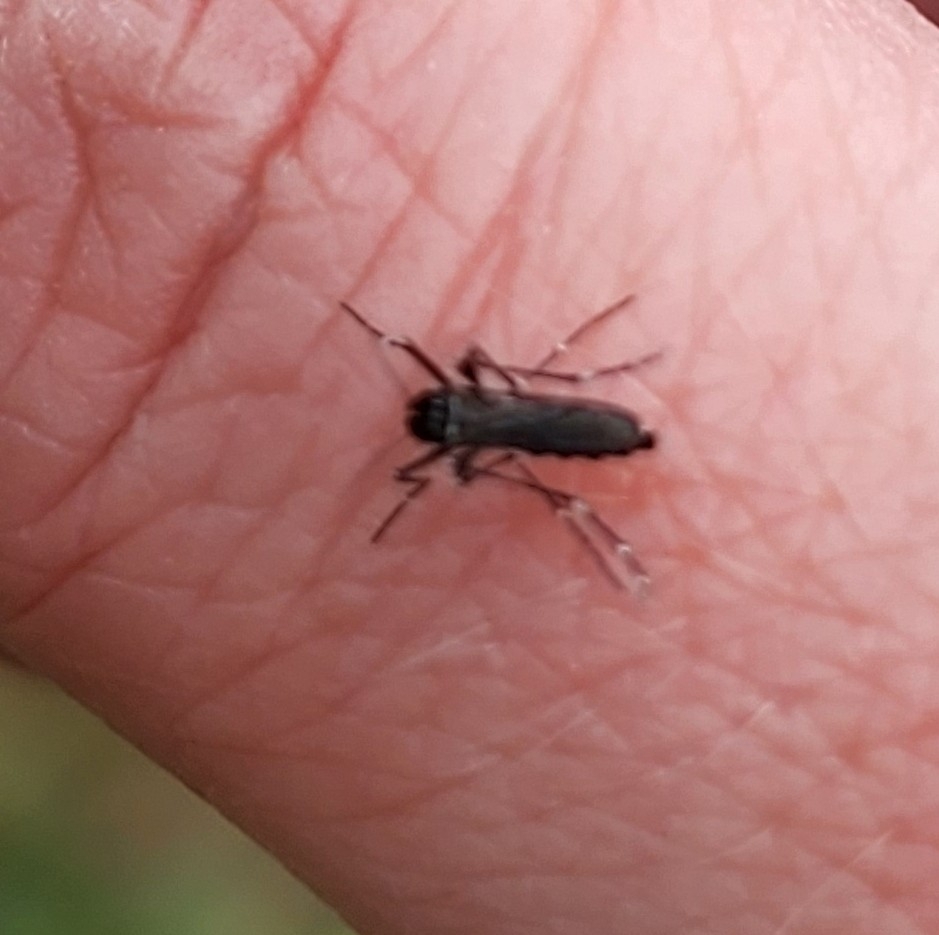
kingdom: Animalia
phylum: Arthropoda
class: Insecta
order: Diptera
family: Culicidae
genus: Aedes
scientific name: Aedes albopictus
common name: Tiger mosquito
